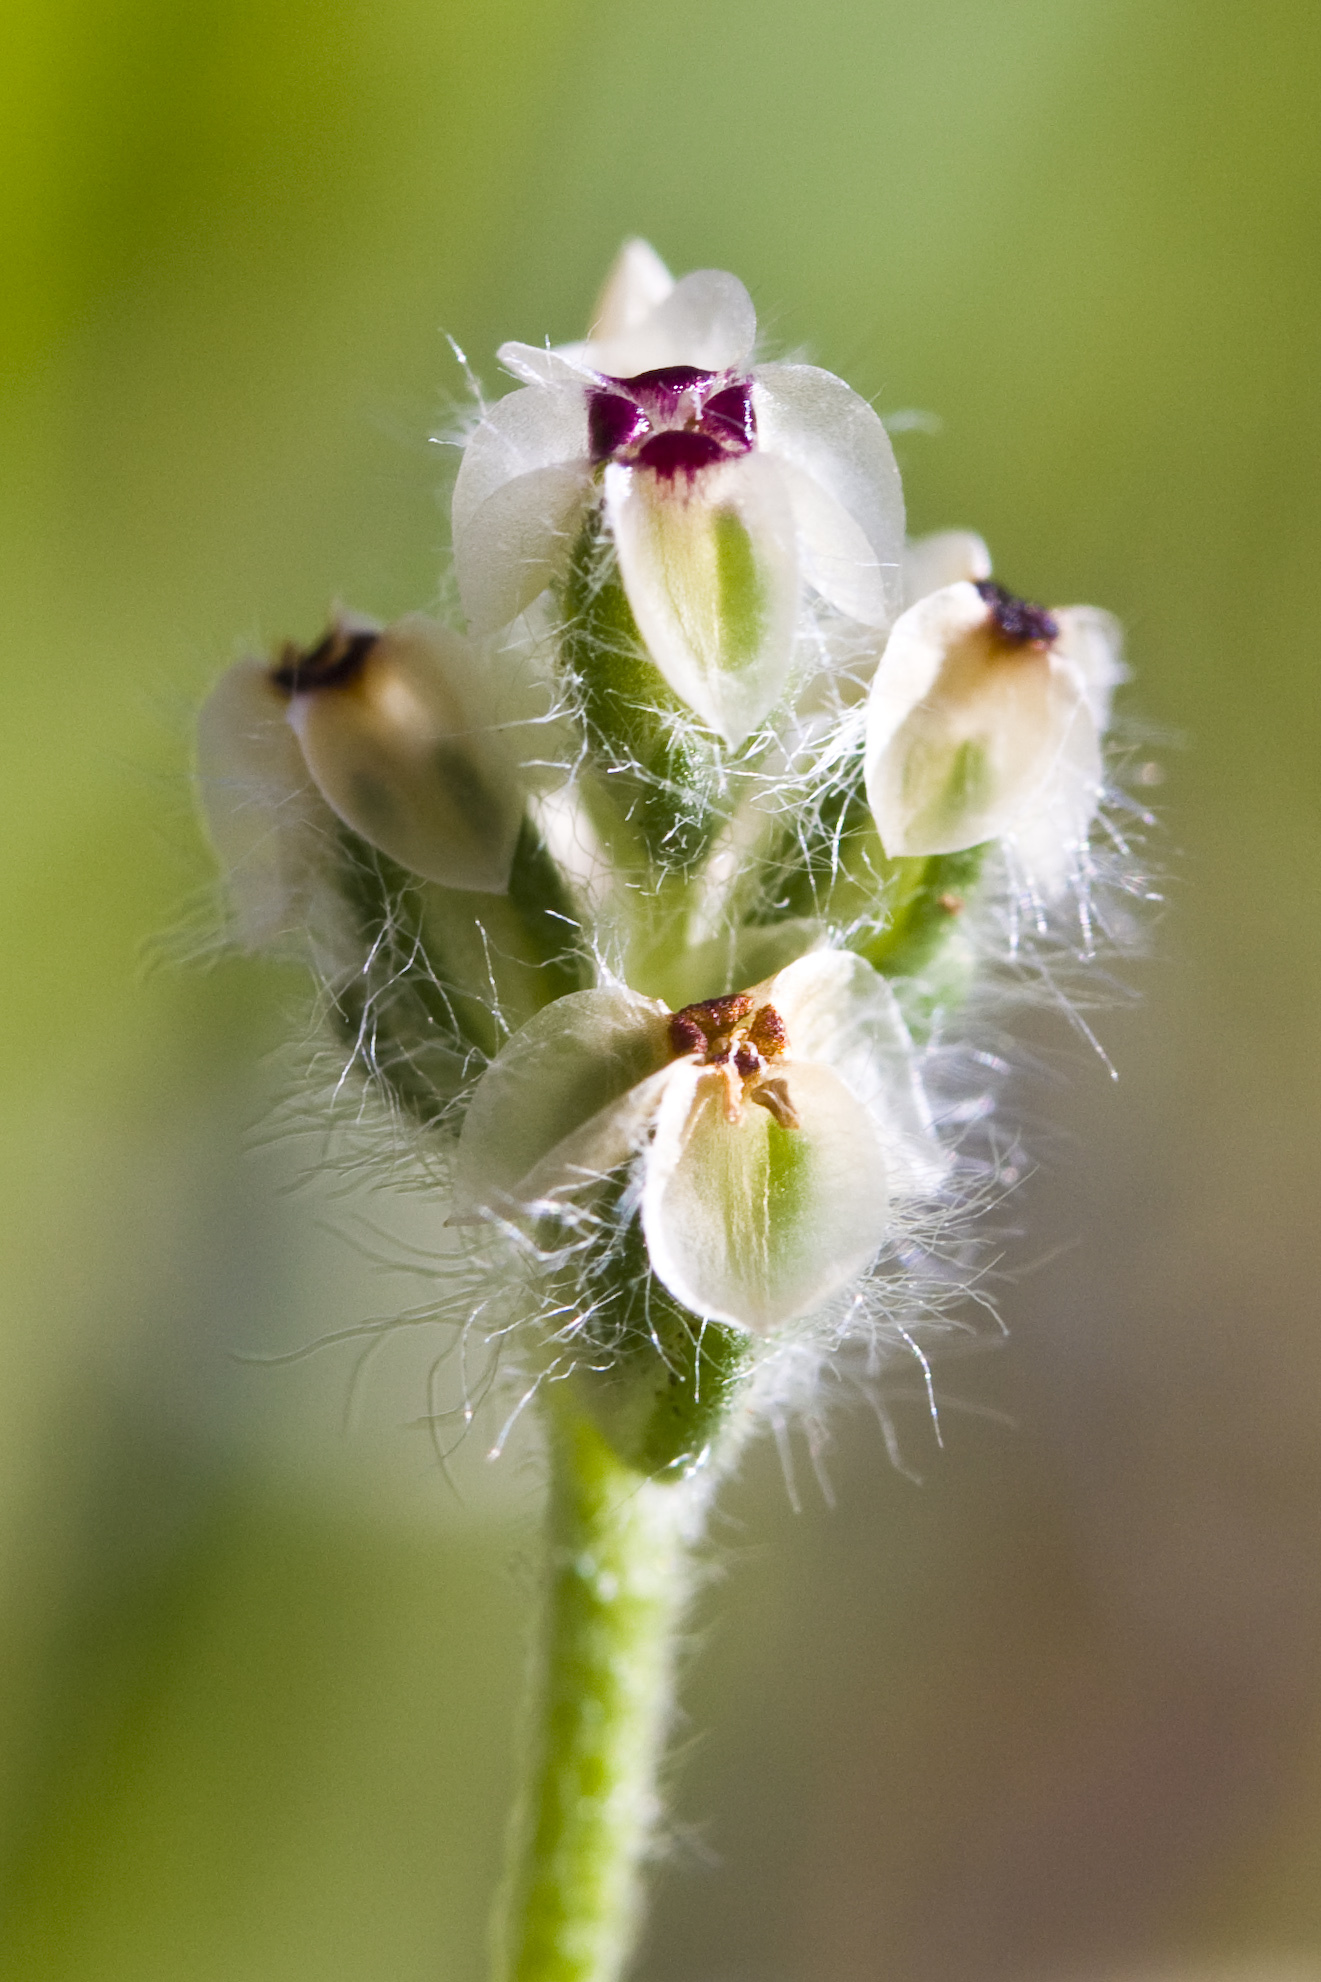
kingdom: Plantae
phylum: Tracheophyta
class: Magnoliopsida
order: Lamiales
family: Plantaginaceae
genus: Plantago
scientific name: Plantago erecta
